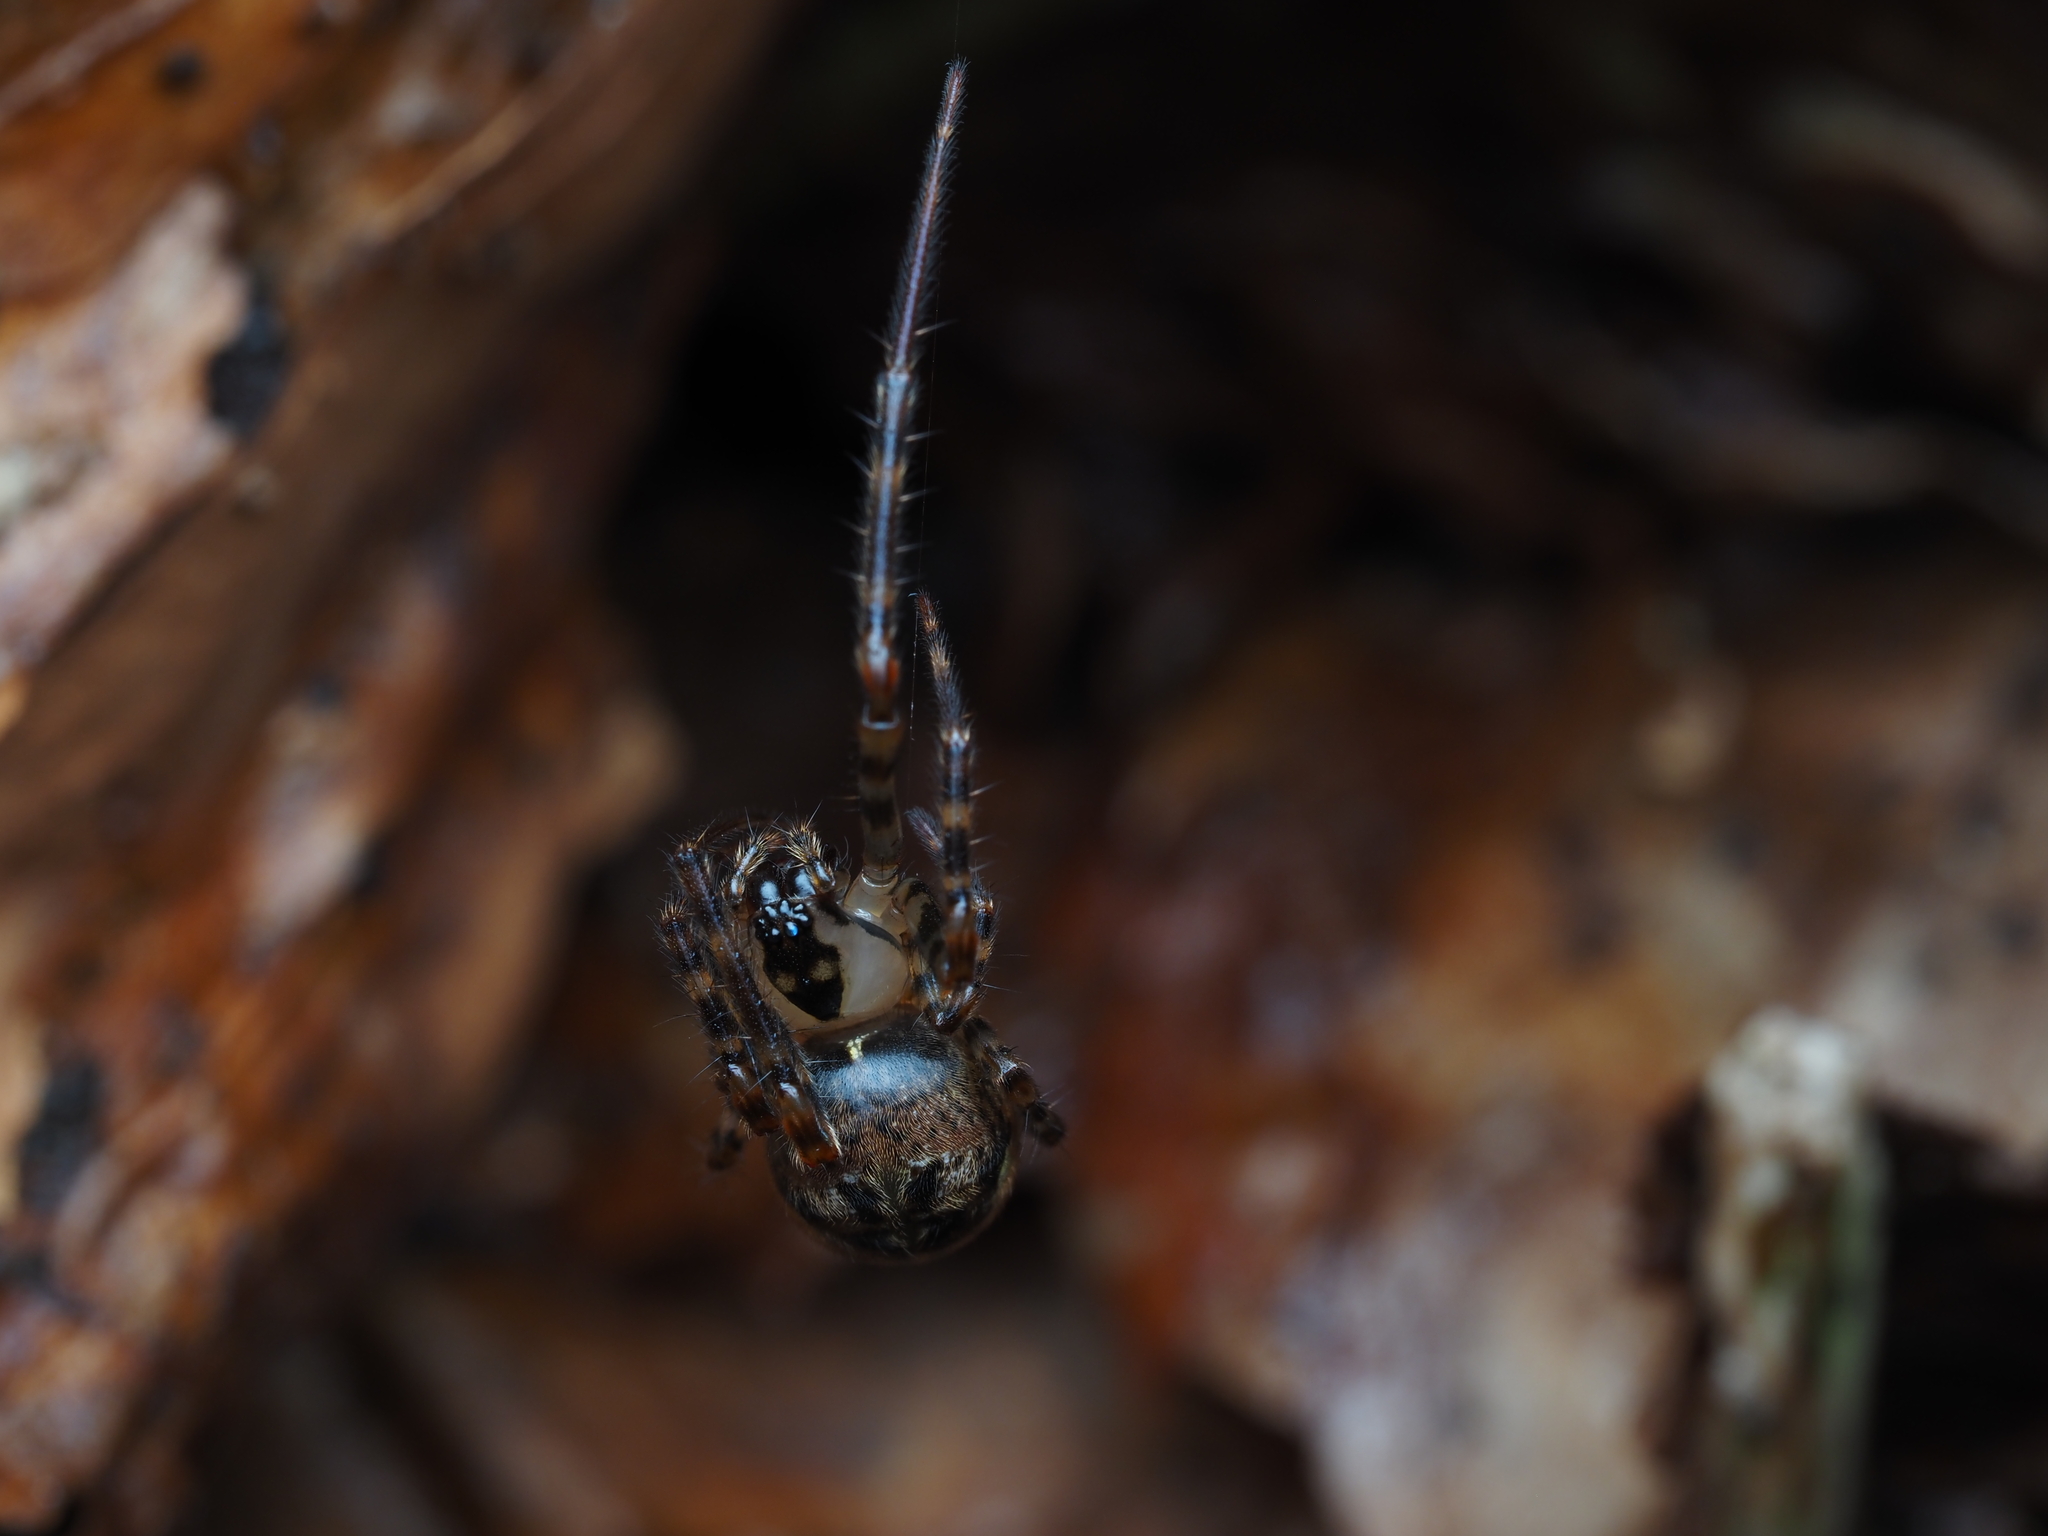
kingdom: Animalia
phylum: Arthropoda
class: Arachnida
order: Araneae
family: Tetragnathidae
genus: Tawhai
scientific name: Tawhai arborea
